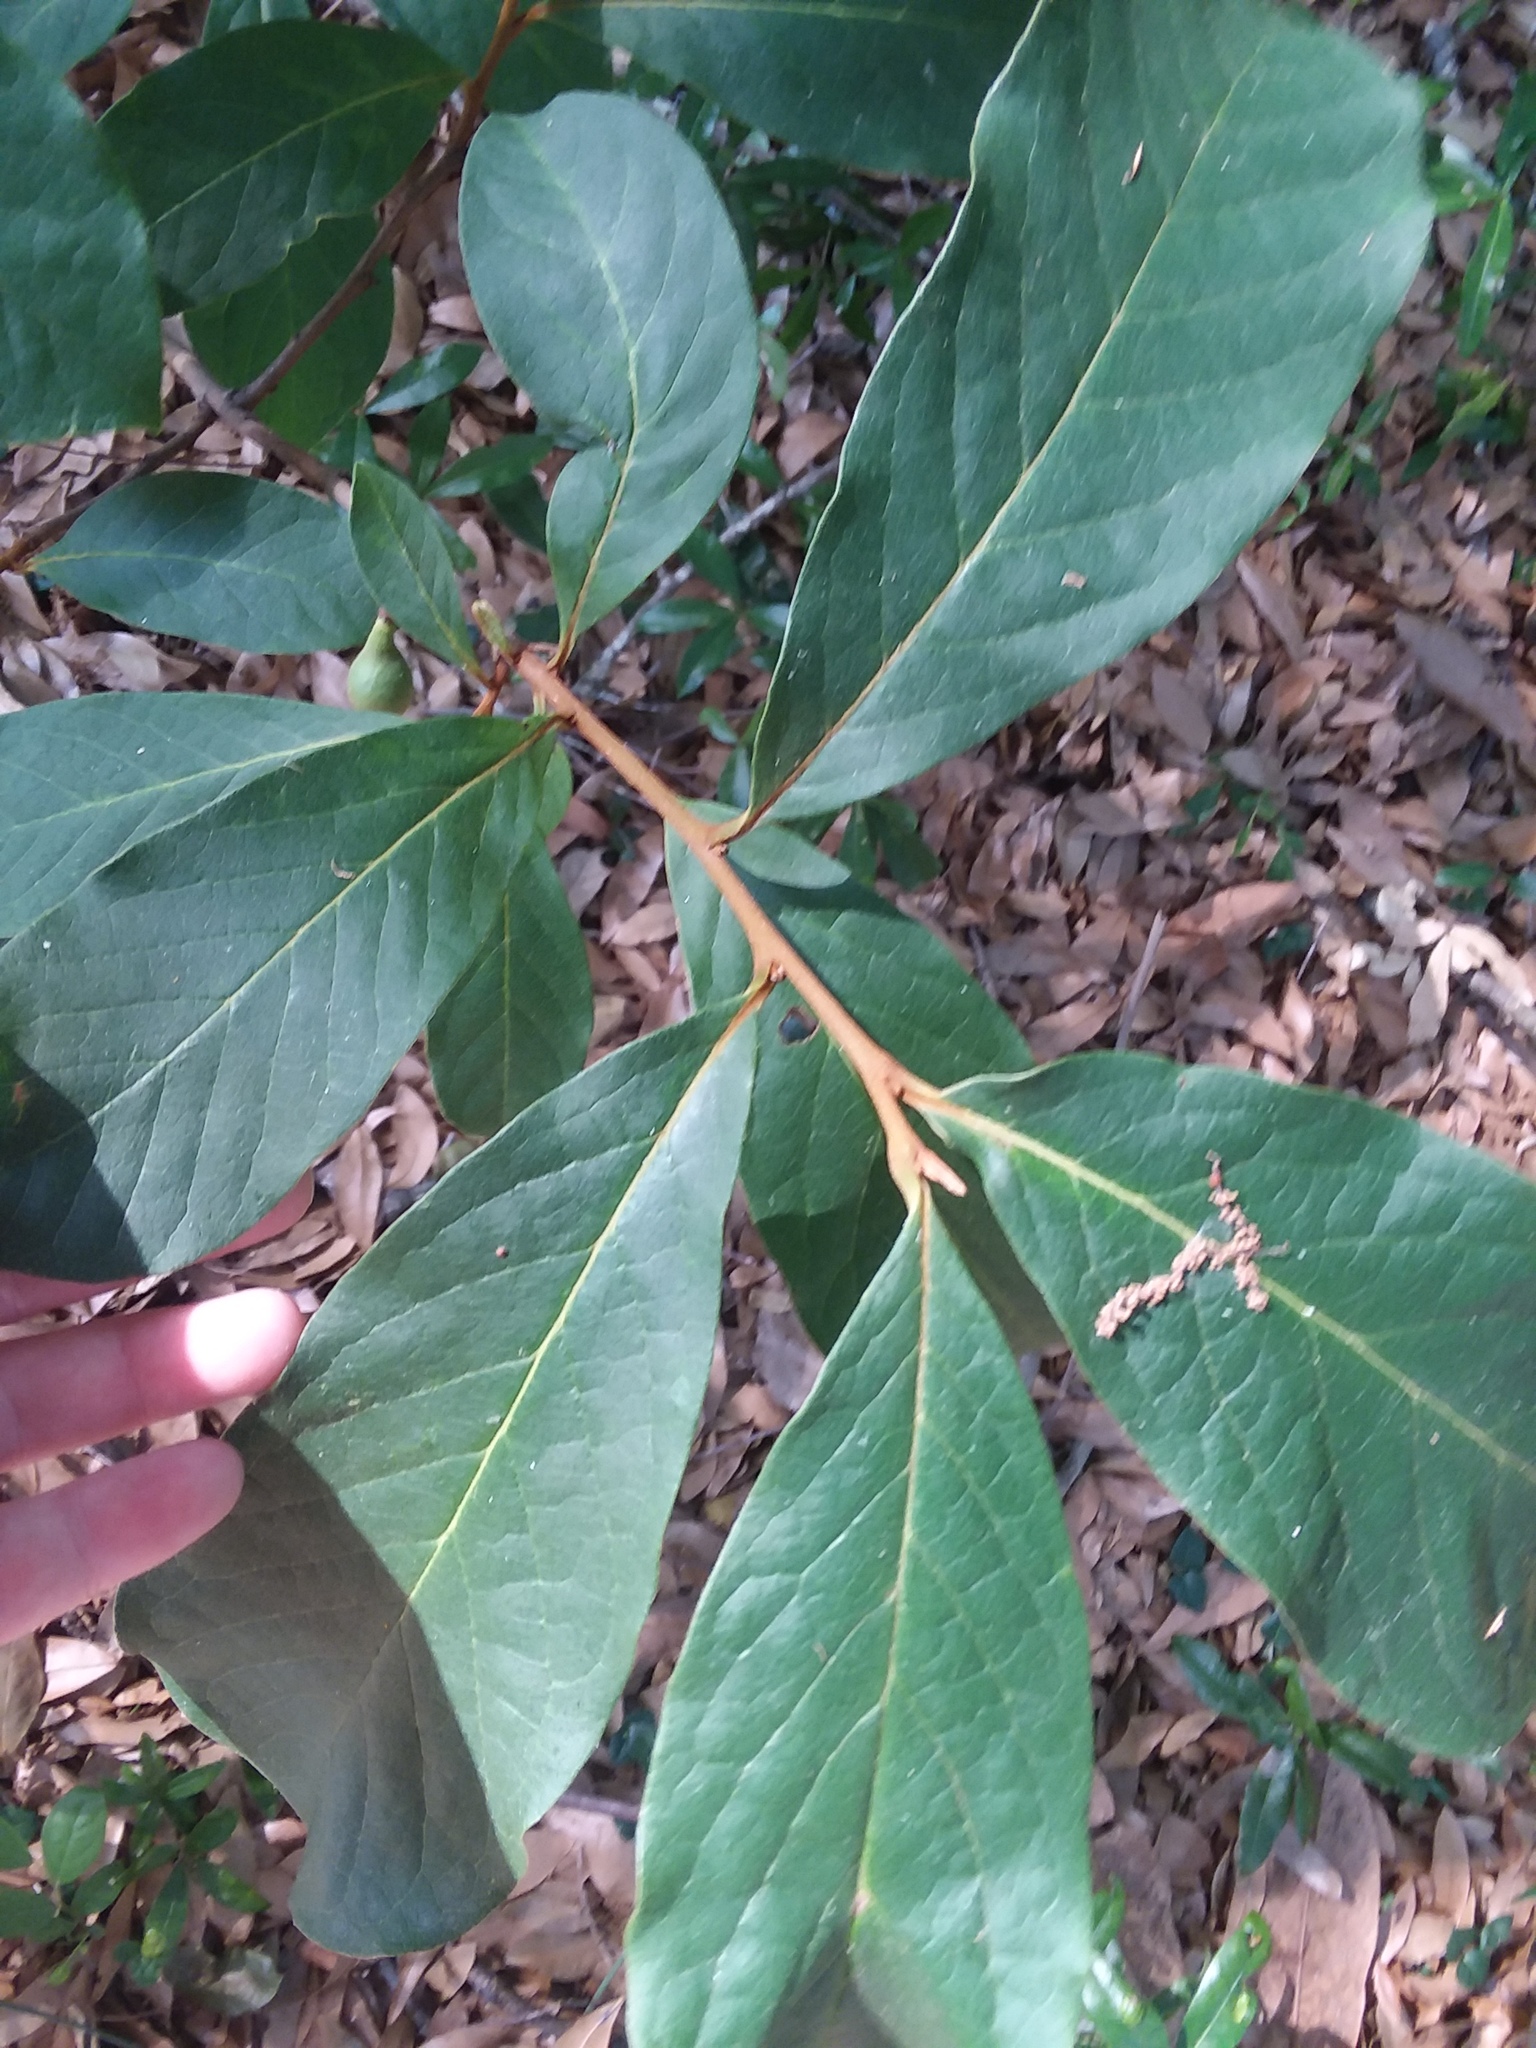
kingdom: Plantae
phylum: Tracheophyta
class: Magnoliopsida
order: Magnoliales
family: Annonaceae
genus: Asimina
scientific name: Asimina parviflora
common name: Dwarf pawpaw
